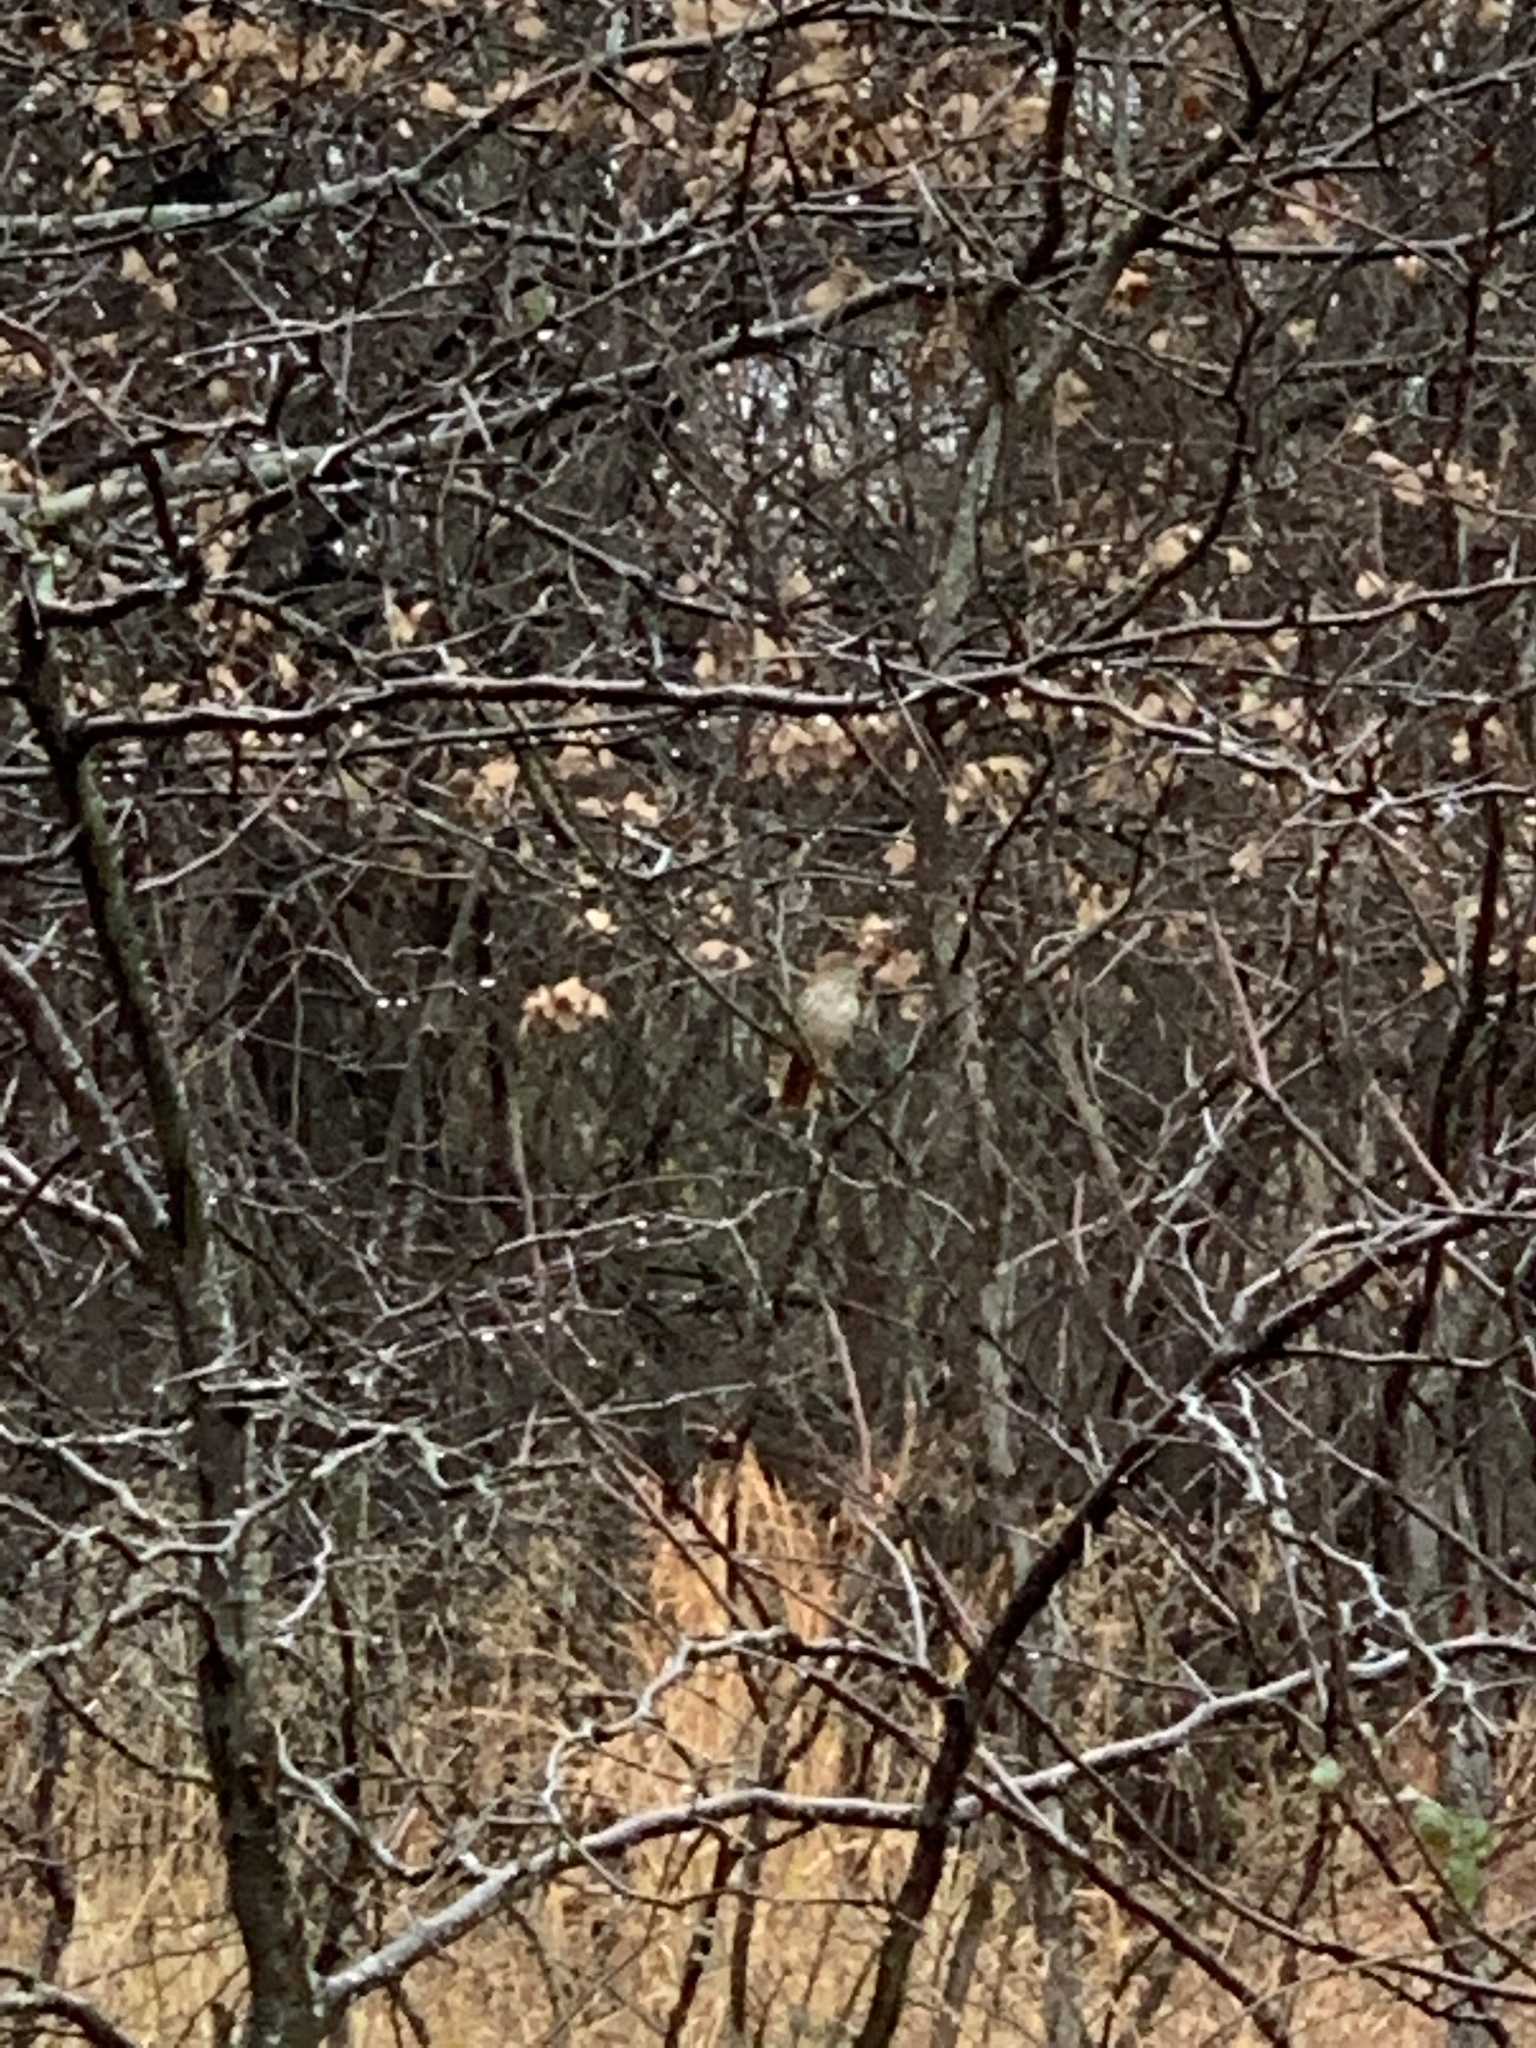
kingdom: Animalia
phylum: Chordata
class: Aves
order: Passeriformes
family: Mimidae
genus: Toxostoma
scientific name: Toxostoma rufum
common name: Brown thrasher
